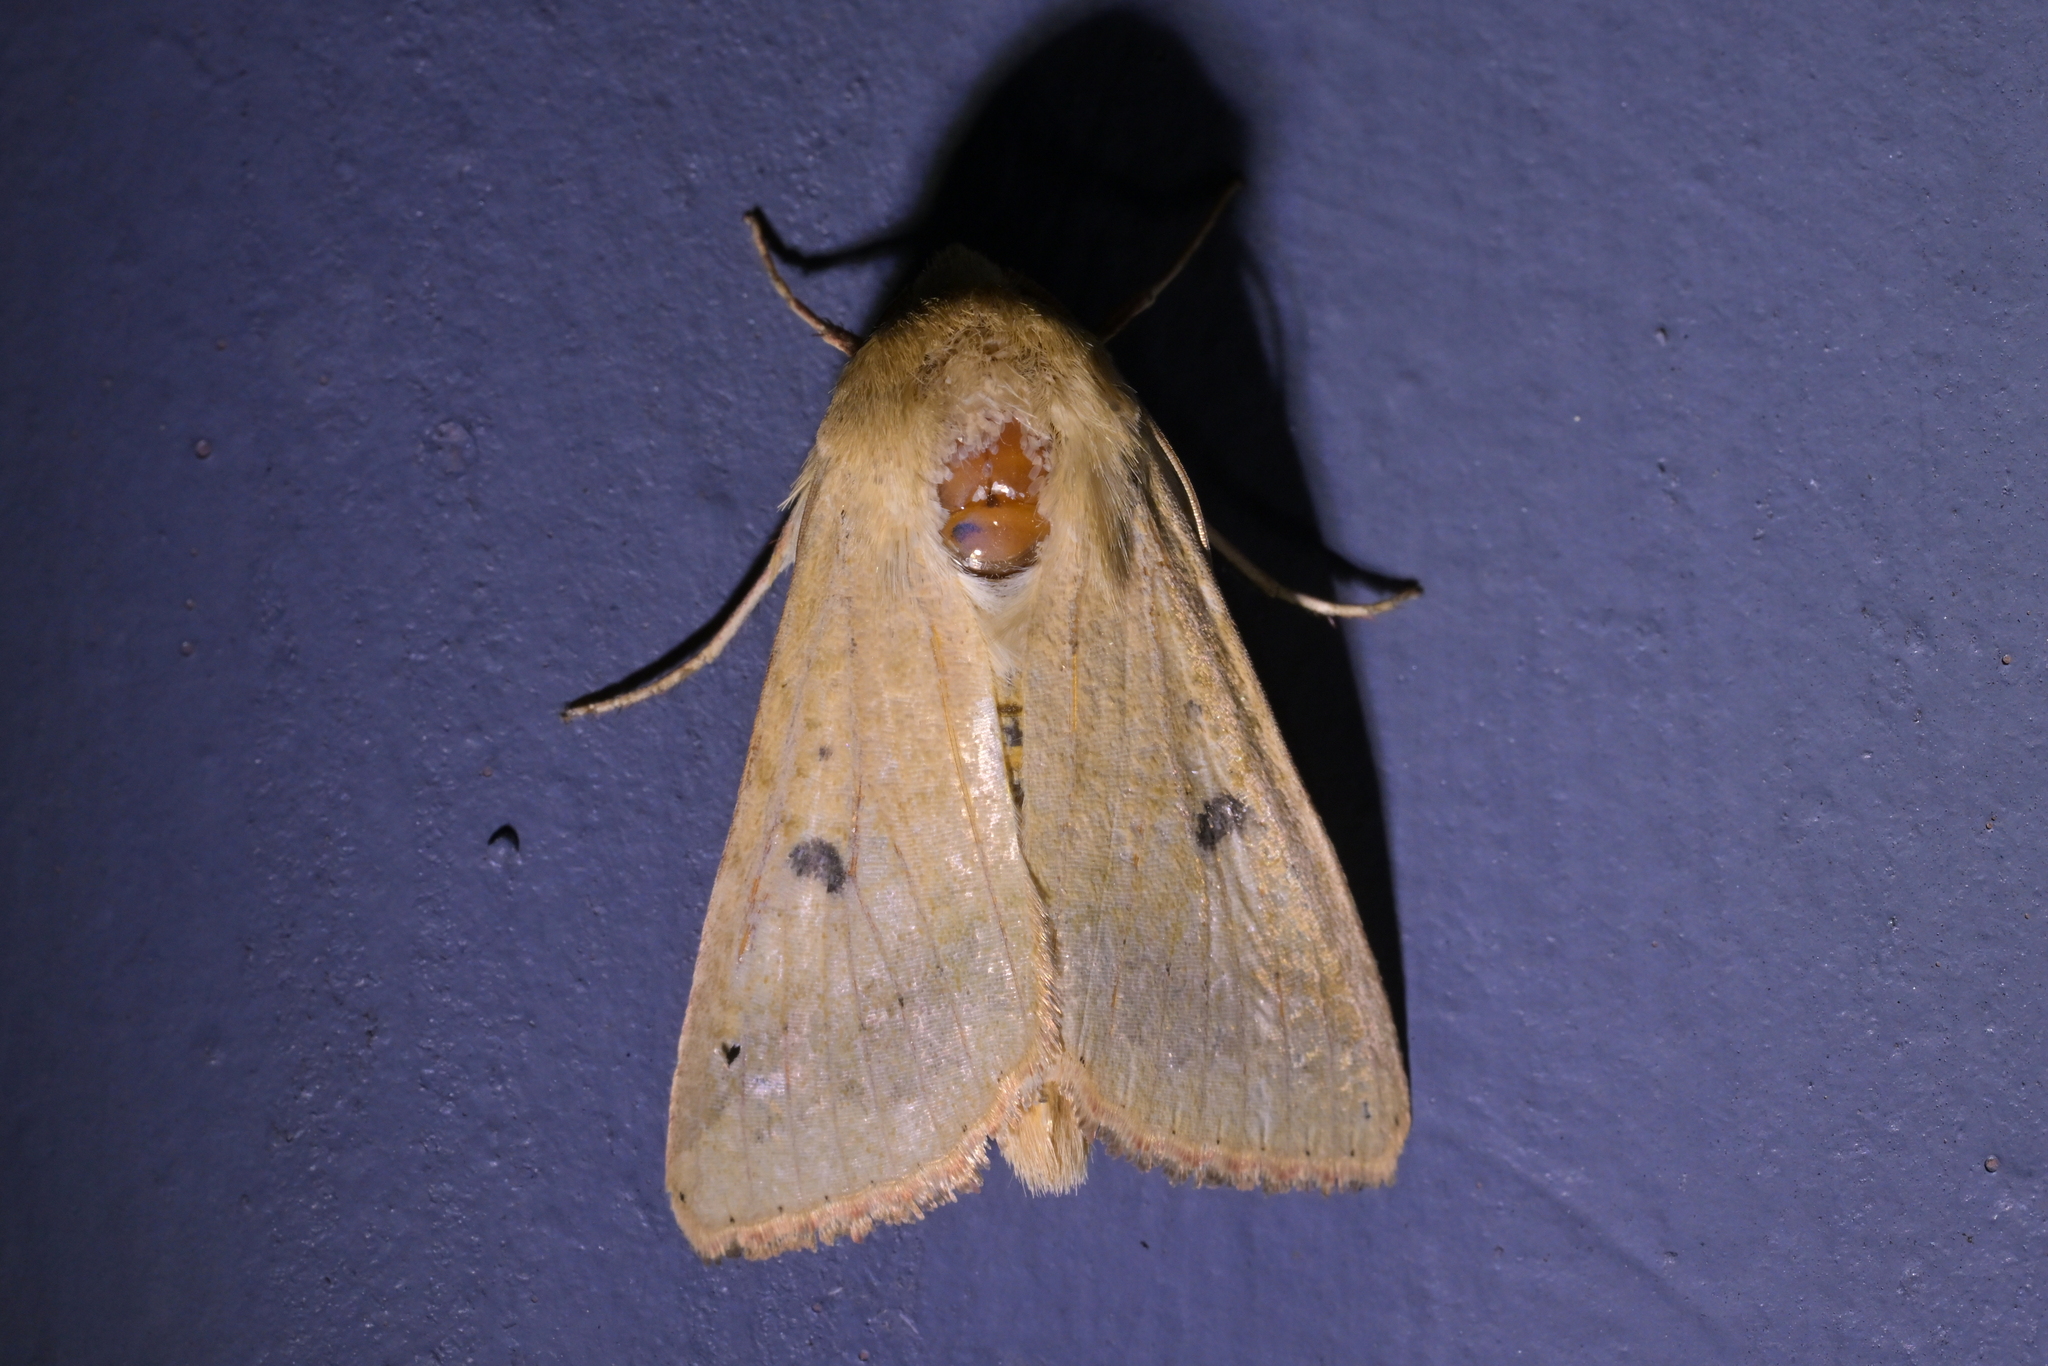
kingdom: Animalia
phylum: Arthropoda
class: Insecta
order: Lepidoptera
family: Noctuidae
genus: Helicoverpa
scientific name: Helicoverpa armigera
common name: Cotton bollworm
